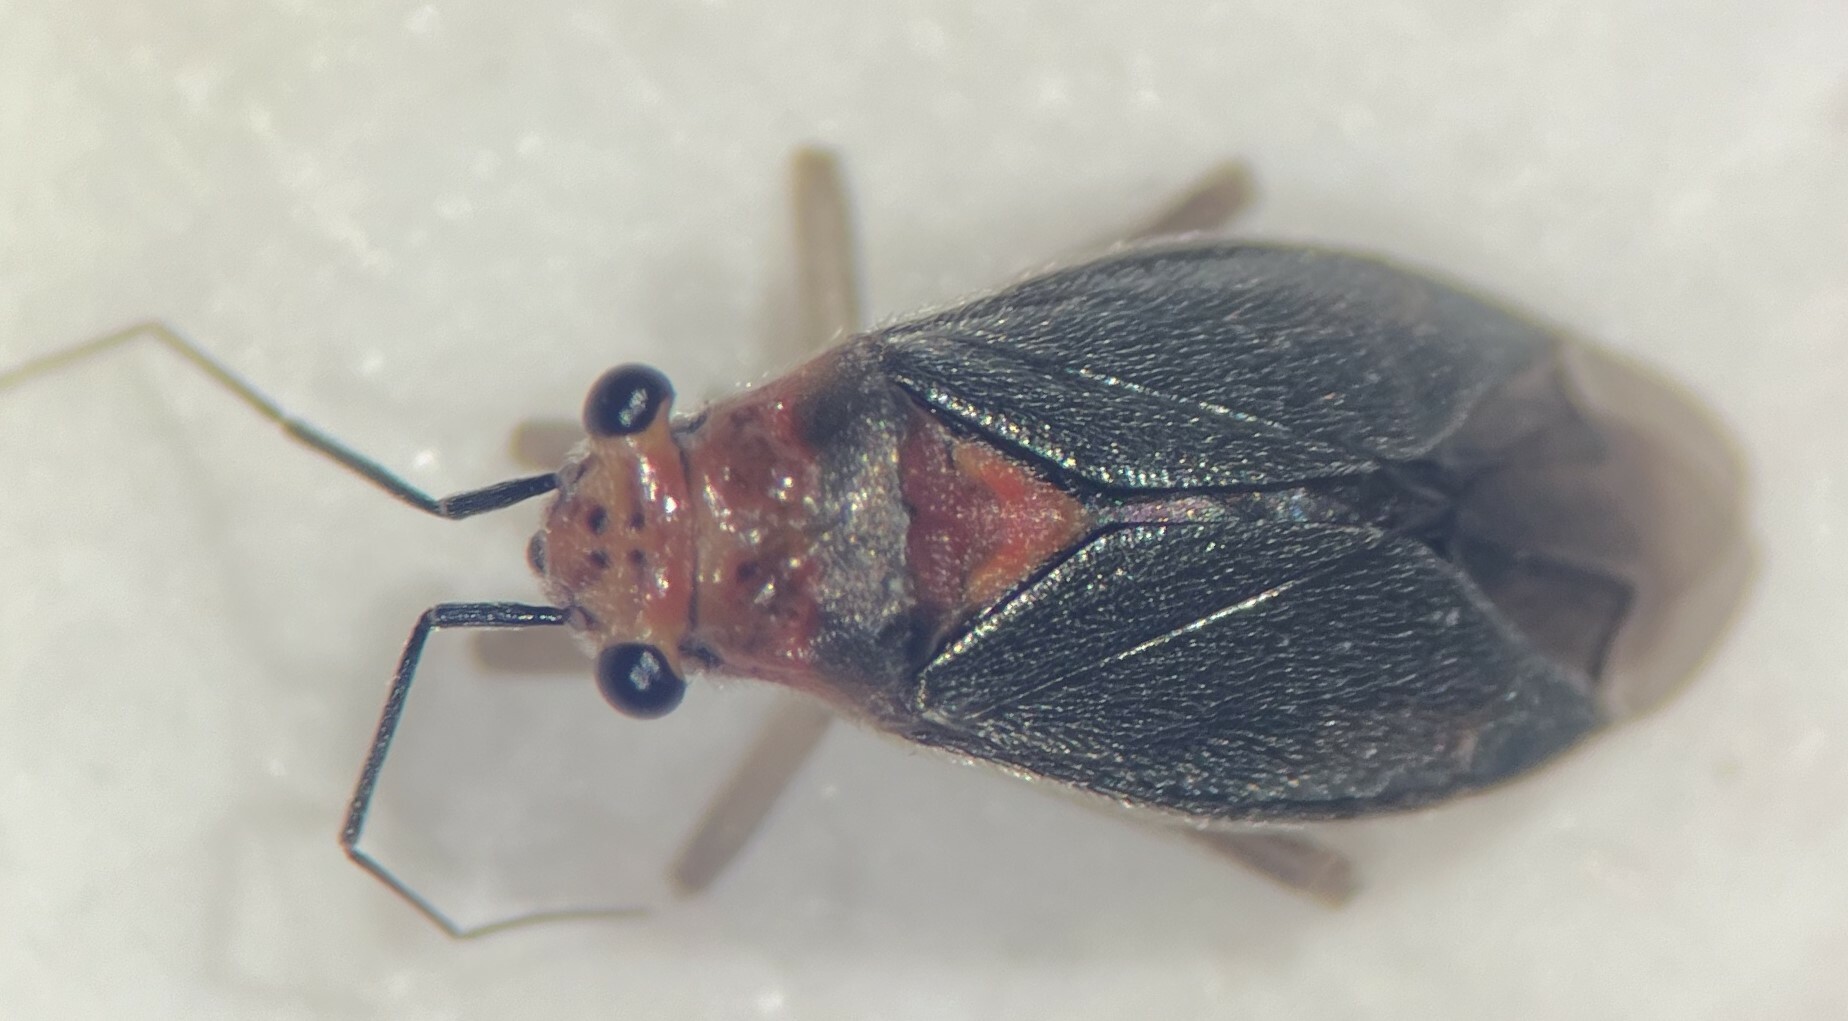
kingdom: Animalia
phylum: Arthropoda
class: Insecta
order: Hemiptera
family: Miridae
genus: Agaveocoris
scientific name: Agaveocoris barberi
